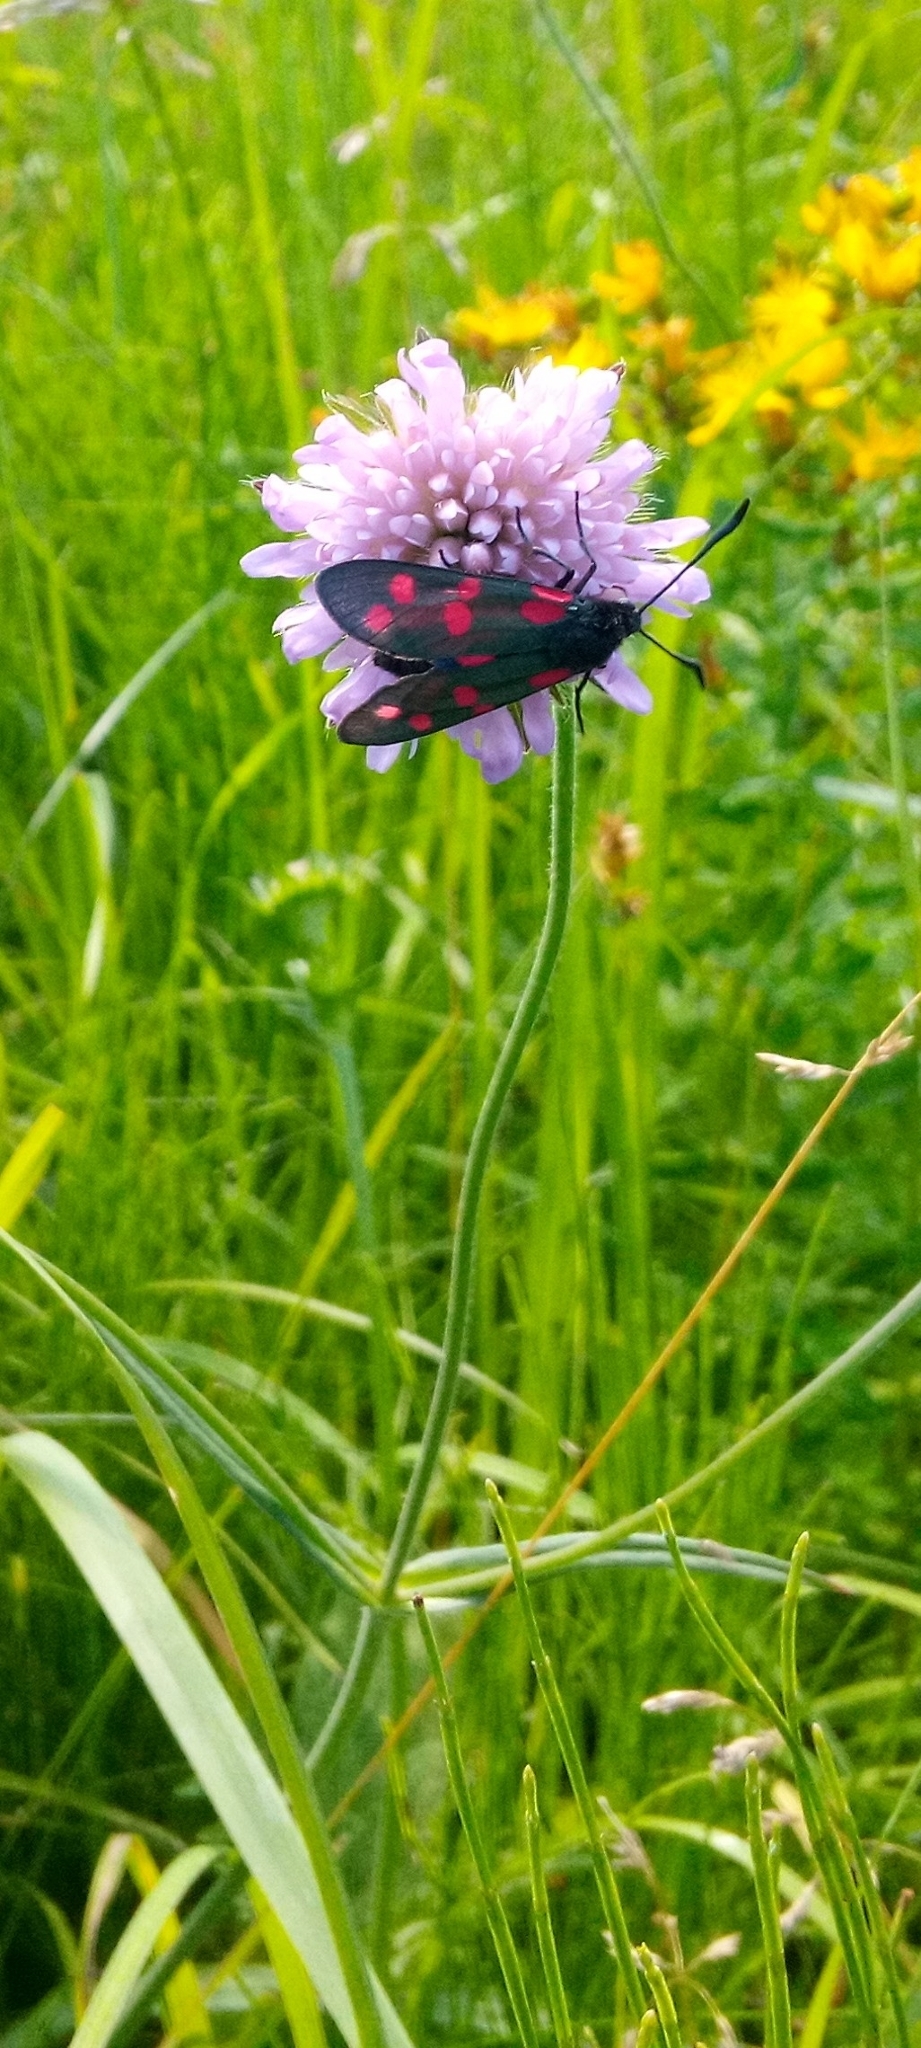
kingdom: Plantae
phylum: Tracheophyta
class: Magnoliopsida
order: Dipsacales
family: Caprifoliaceae
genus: Knautia
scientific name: Knautia arvensis
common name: Field scabiosa
